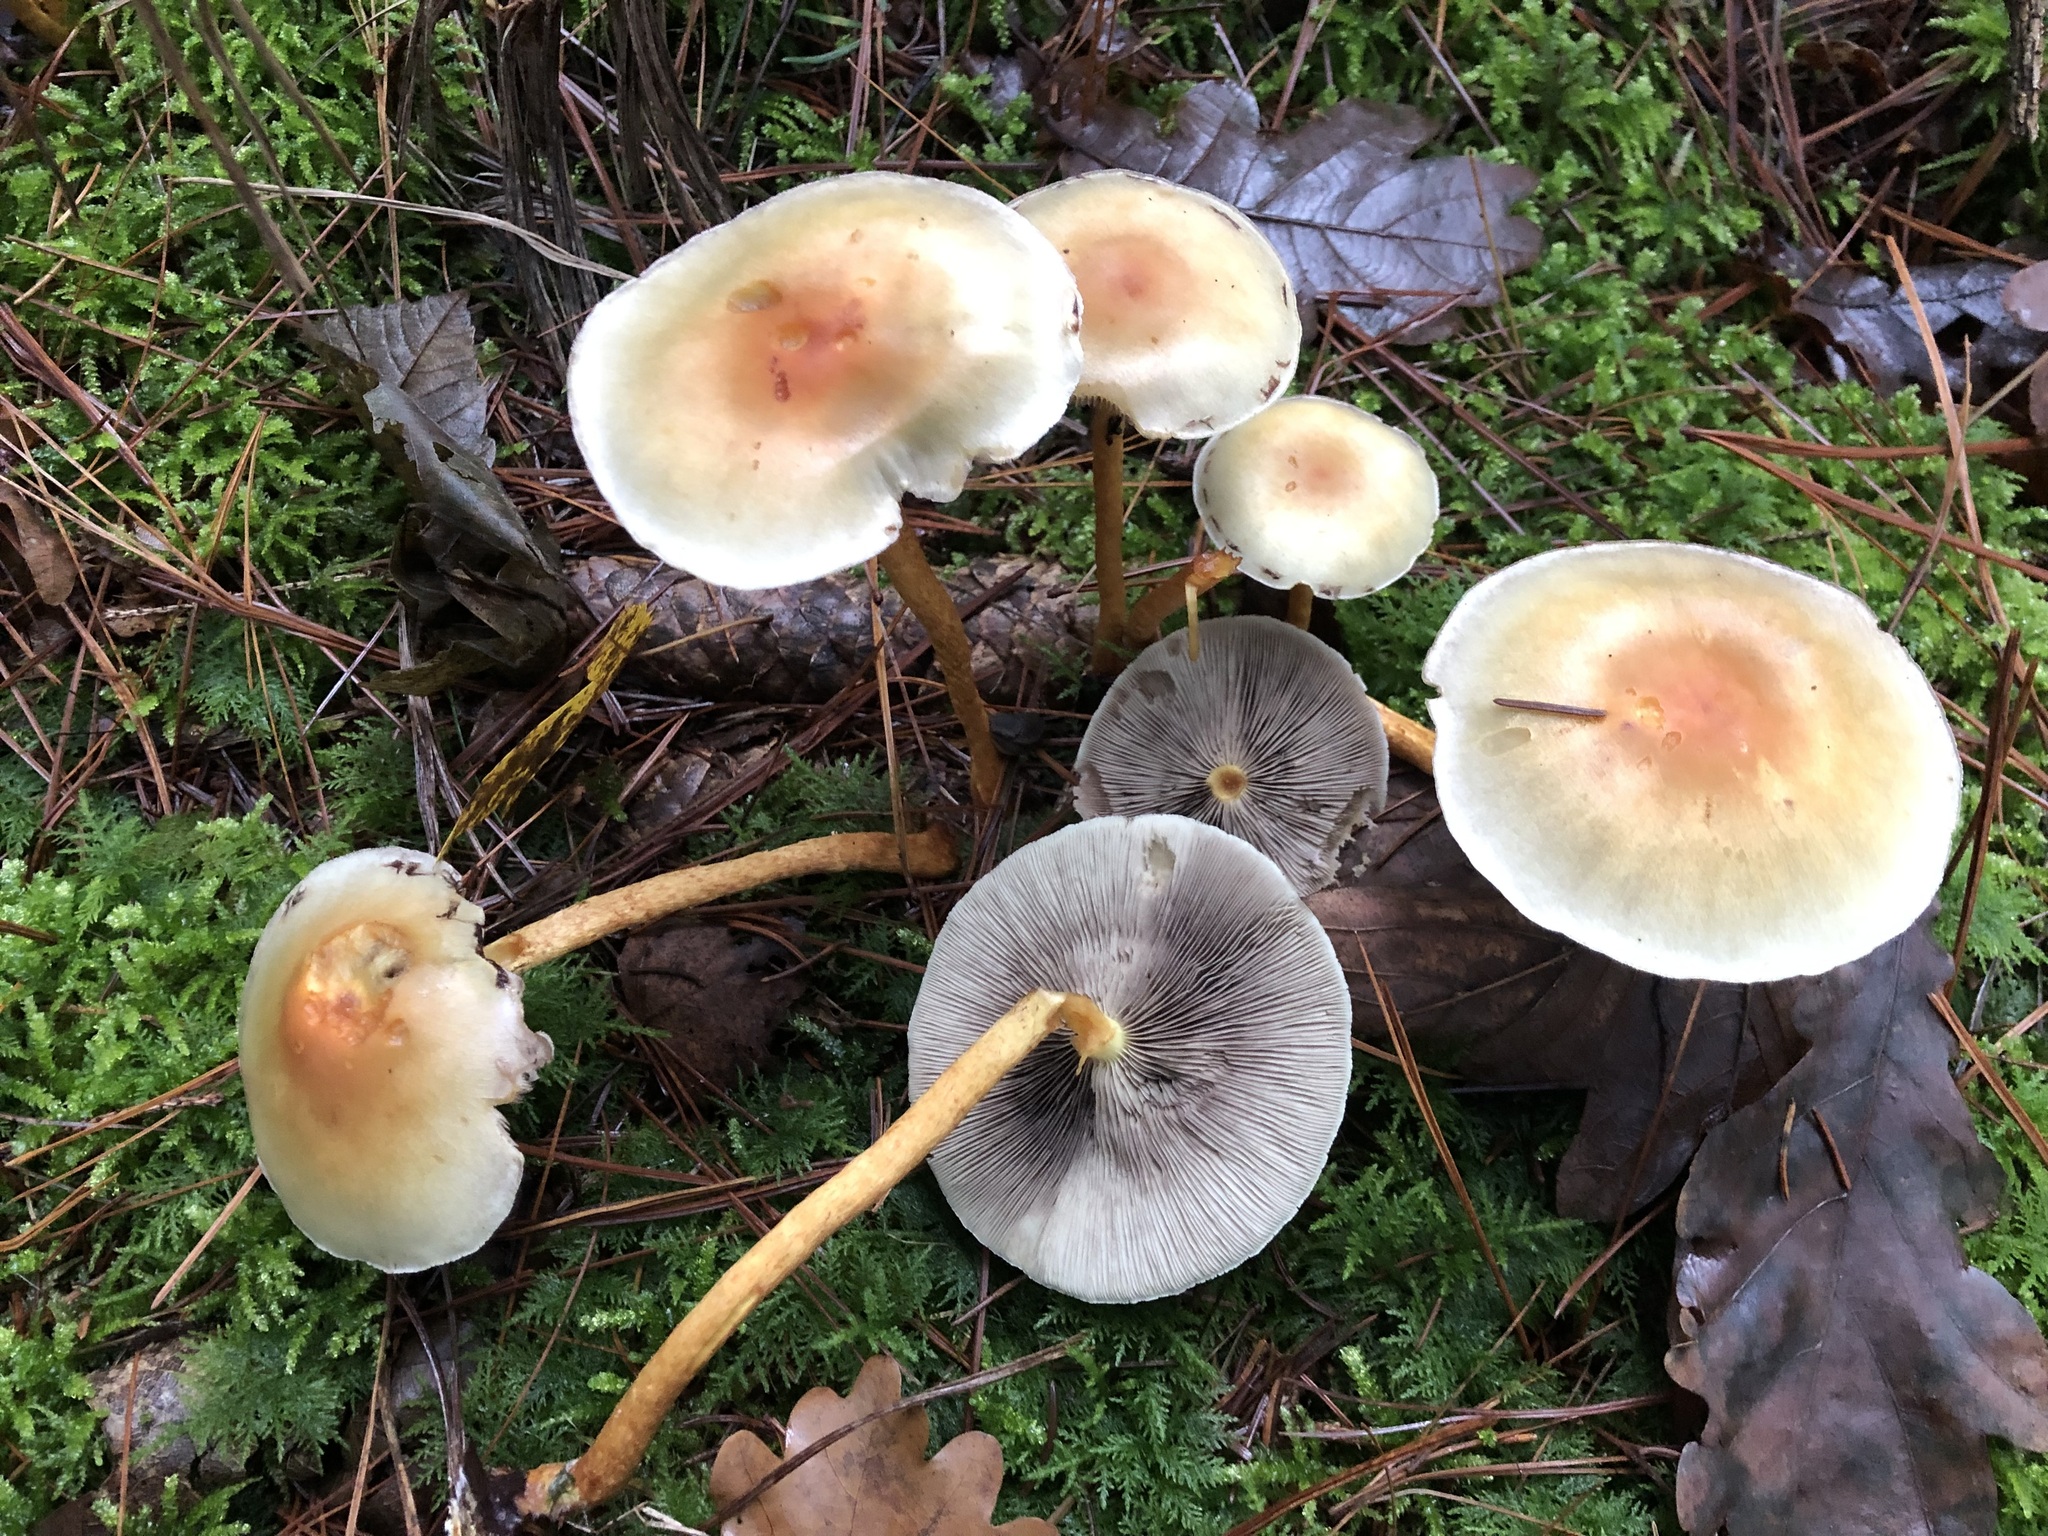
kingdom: Fungi
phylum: Basidiomycota
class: Agaricomycetes
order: Agaricales
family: Strophariaceae
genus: Hypholoma
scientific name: Hypholoma capnoides
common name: Conifer tuft
